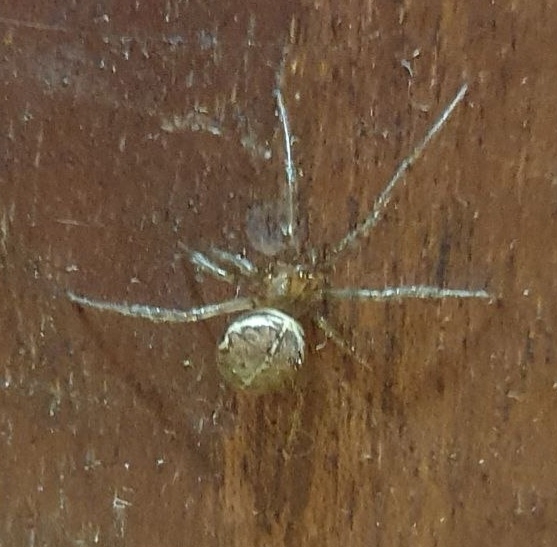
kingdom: Animalia
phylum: Arthropoda
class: Arachnida
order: Araneae
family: Theridiidae
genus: Steatoda
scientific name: Steatoda castanea
